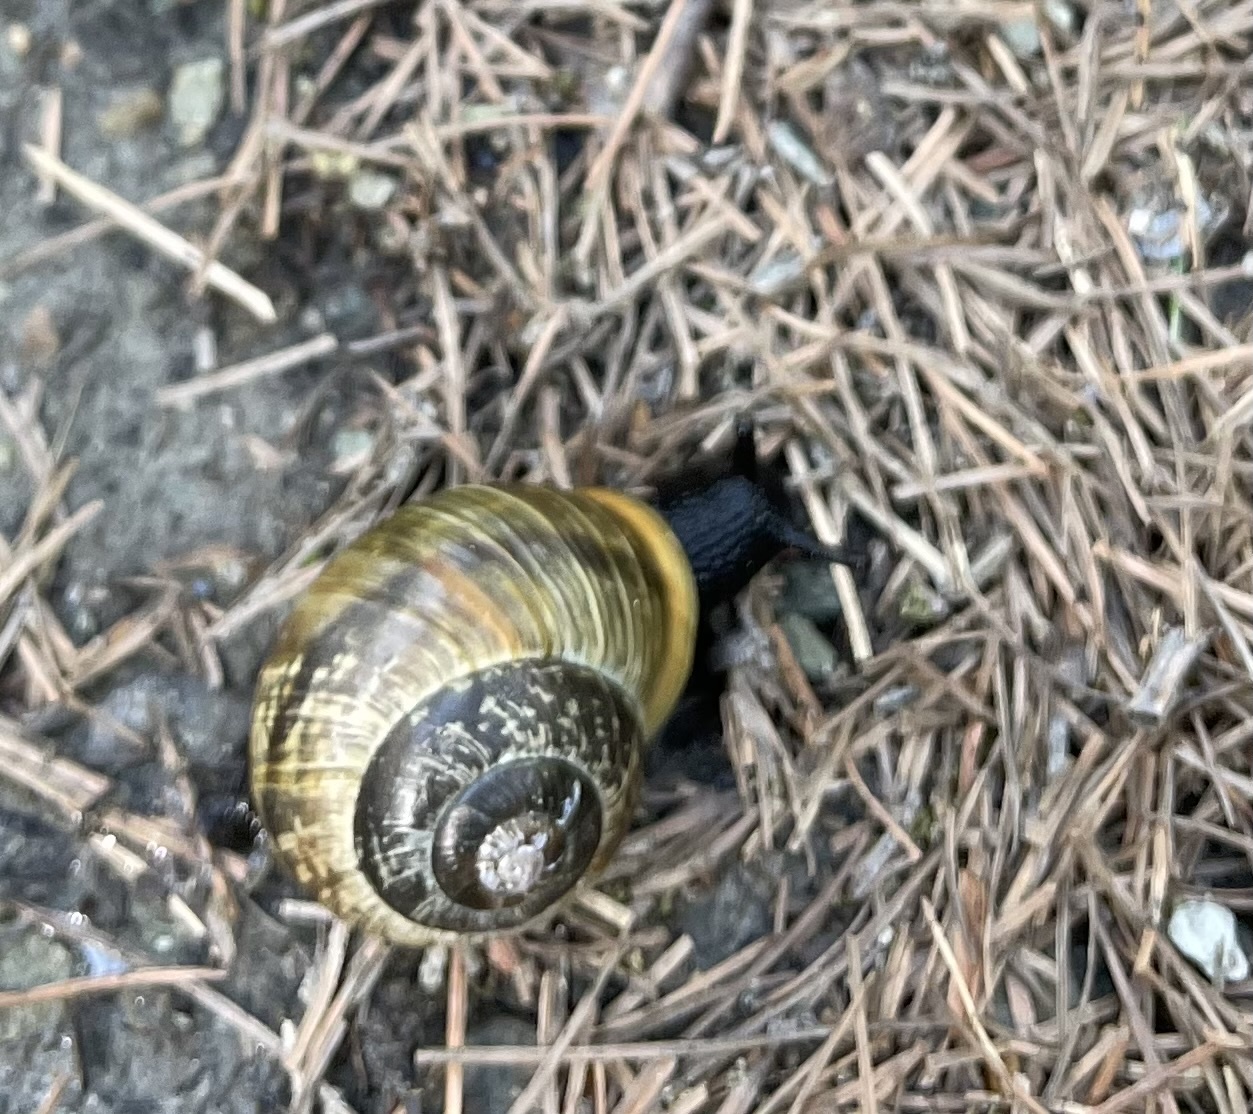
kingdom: Animalia
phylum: Mollusca
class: Gastropoda
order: Stylommatophora
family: Helicidae
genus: Arianta
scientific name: Arianta arbustorum
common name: Copse snail
